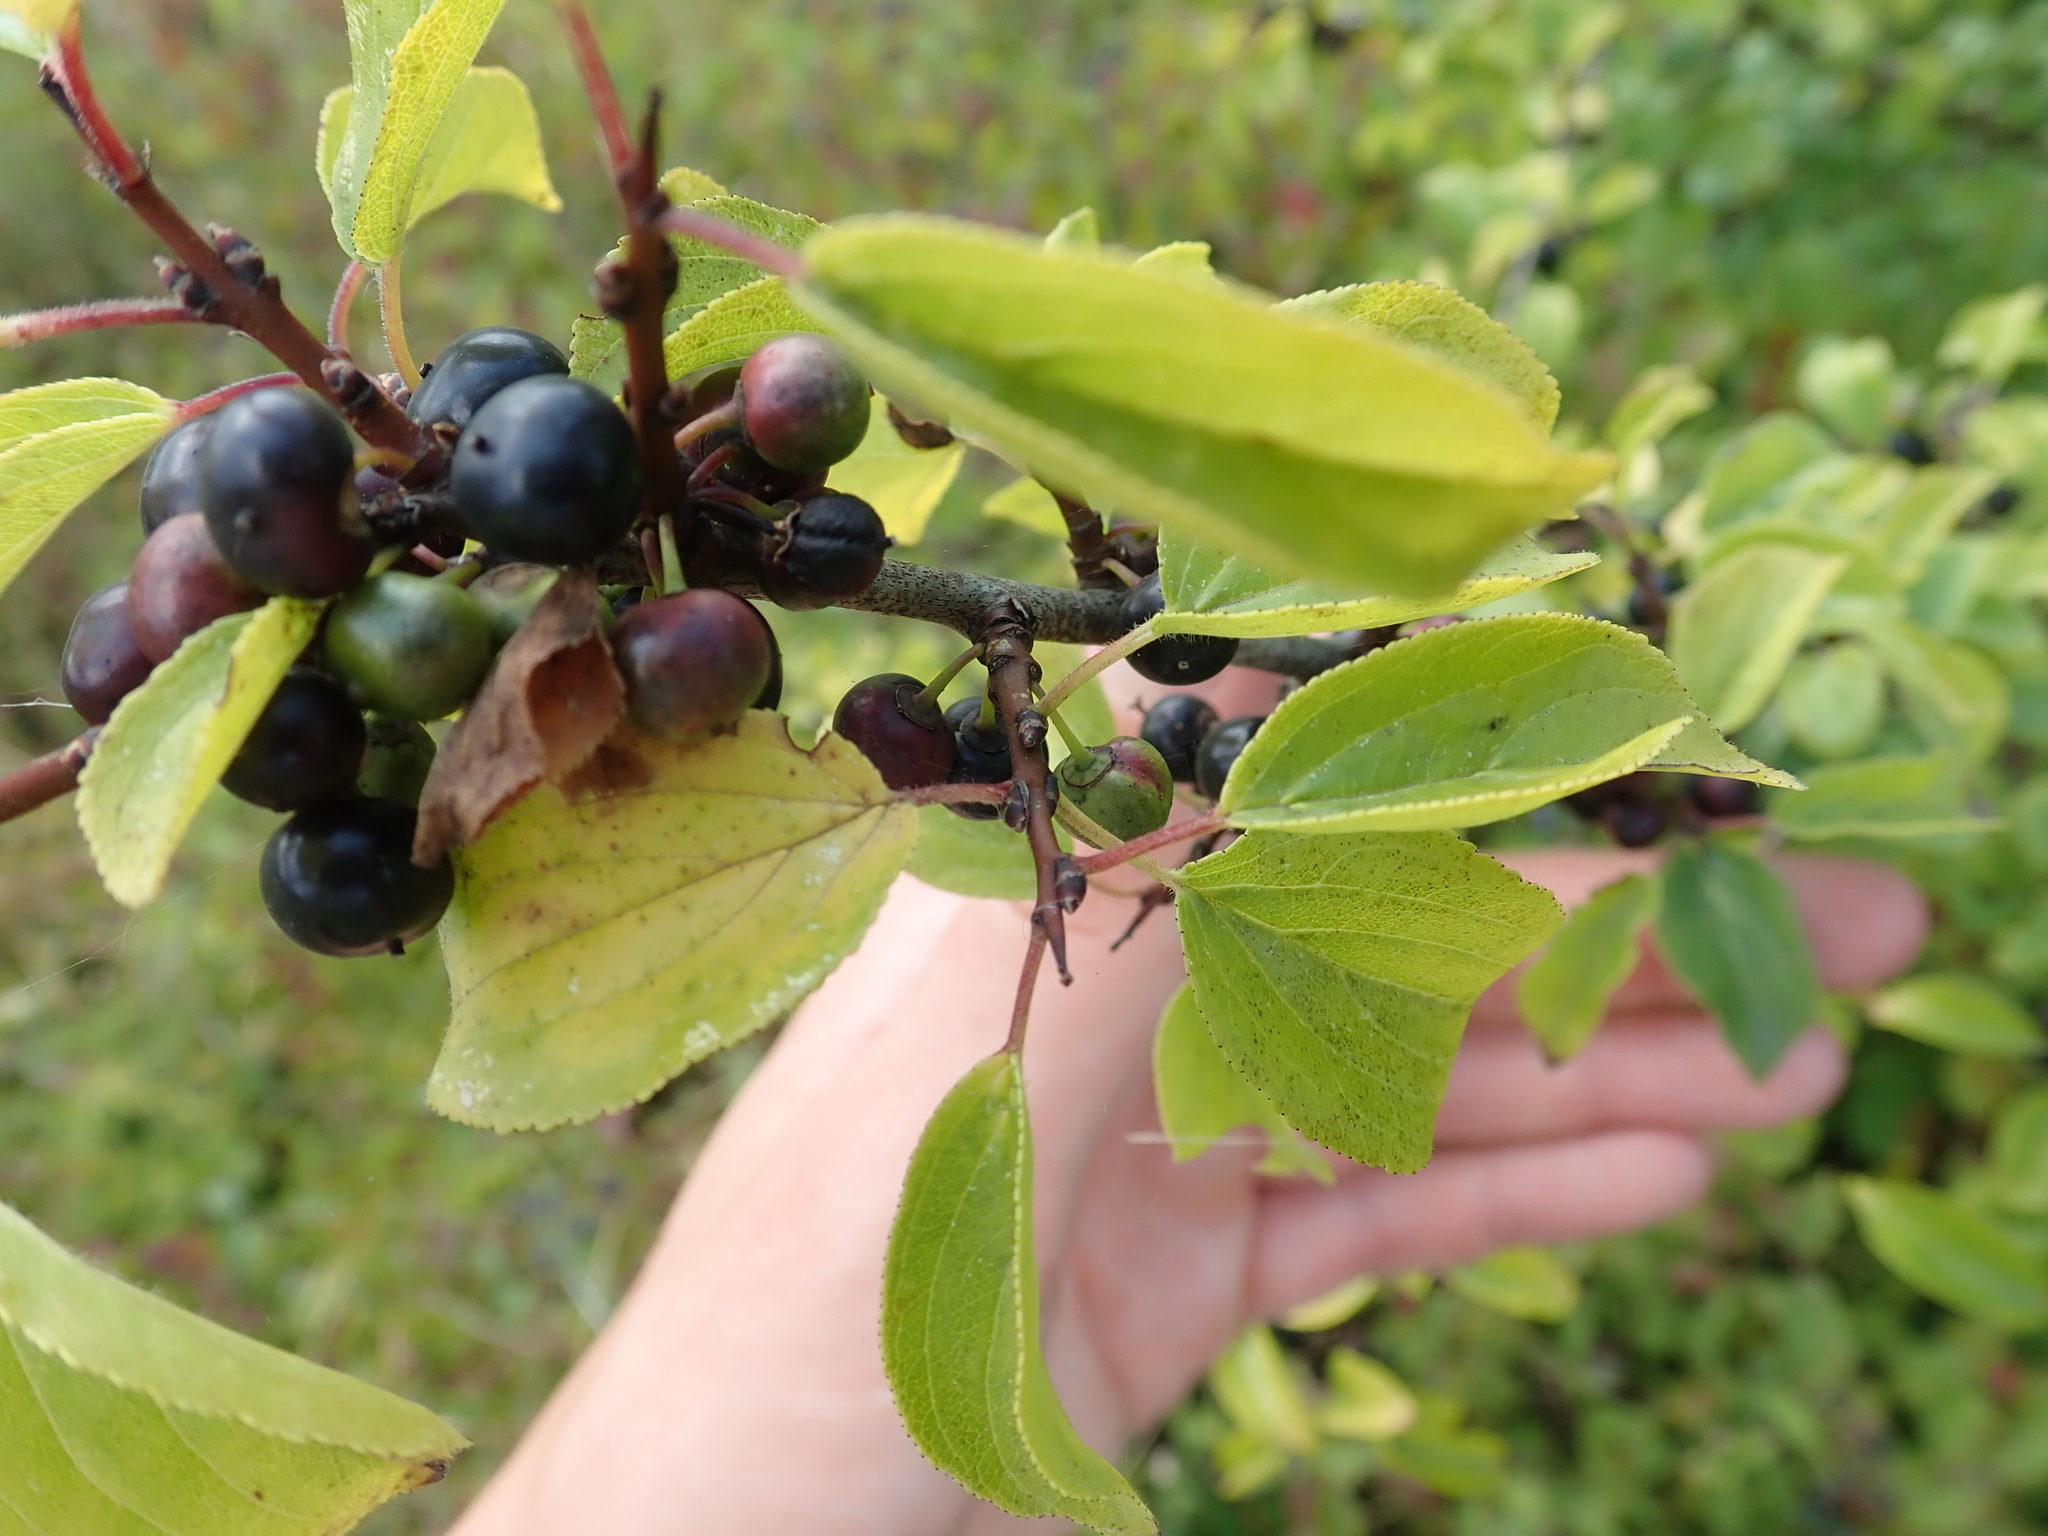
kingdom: Plantae
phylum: Tracheophyta
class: Magnoliopsida
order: Rosales
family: Rhamnaceae
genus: Rhamnus
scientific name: Rhamnus cathartica
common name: Common buckthorn
